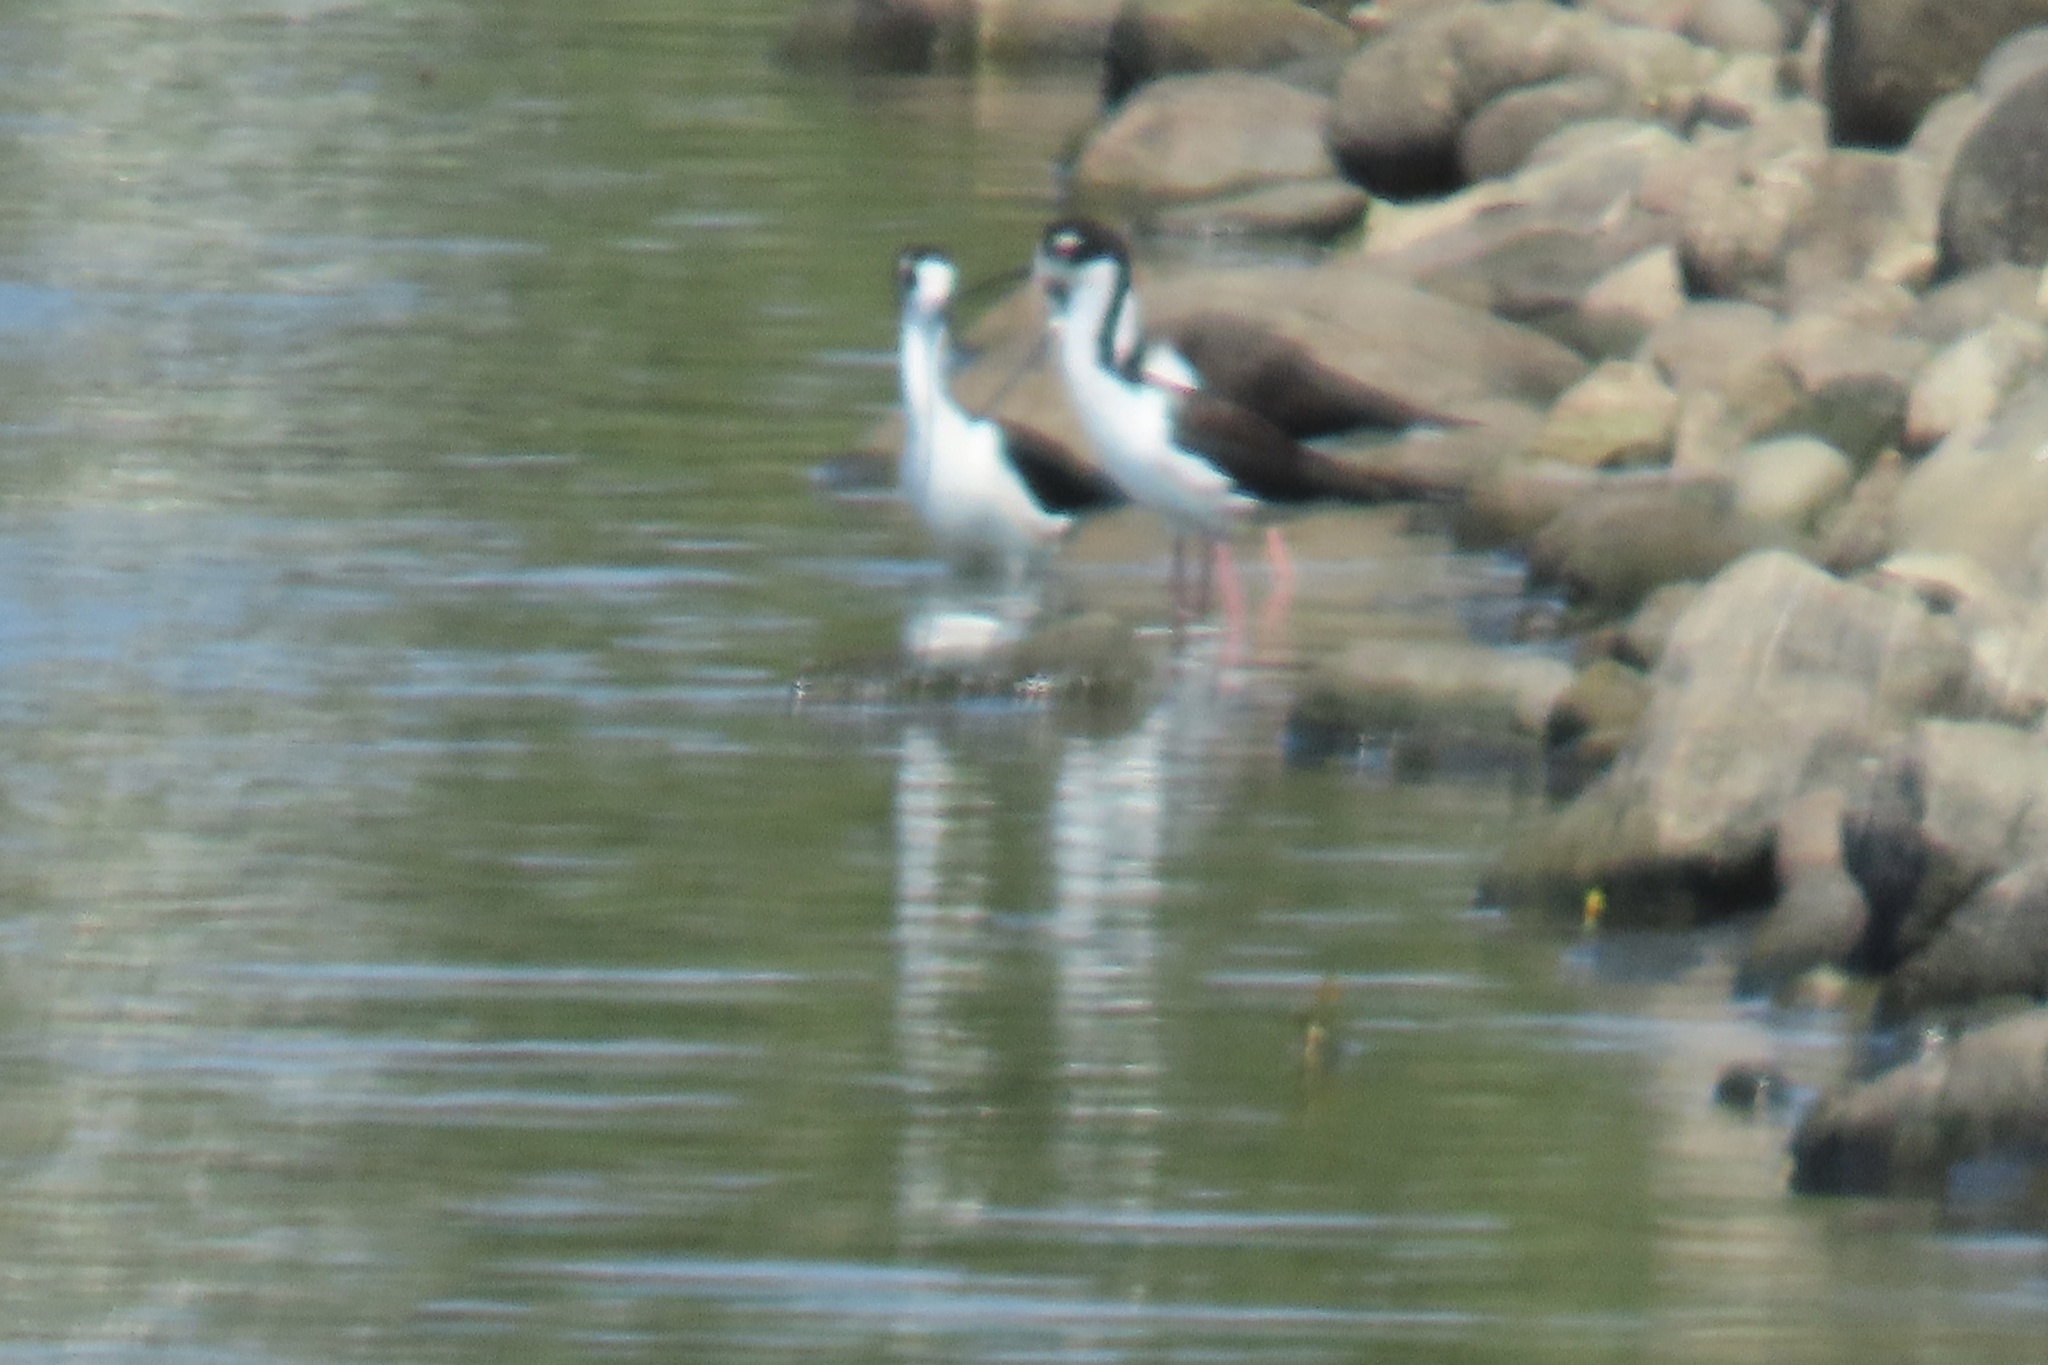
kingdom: Animalia
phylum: Chordata
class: Aves
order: Charadriiformes
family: Recurvirostridae
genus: Himantopus
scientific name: Himantopus mexicanus
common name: Black-necked stilt
